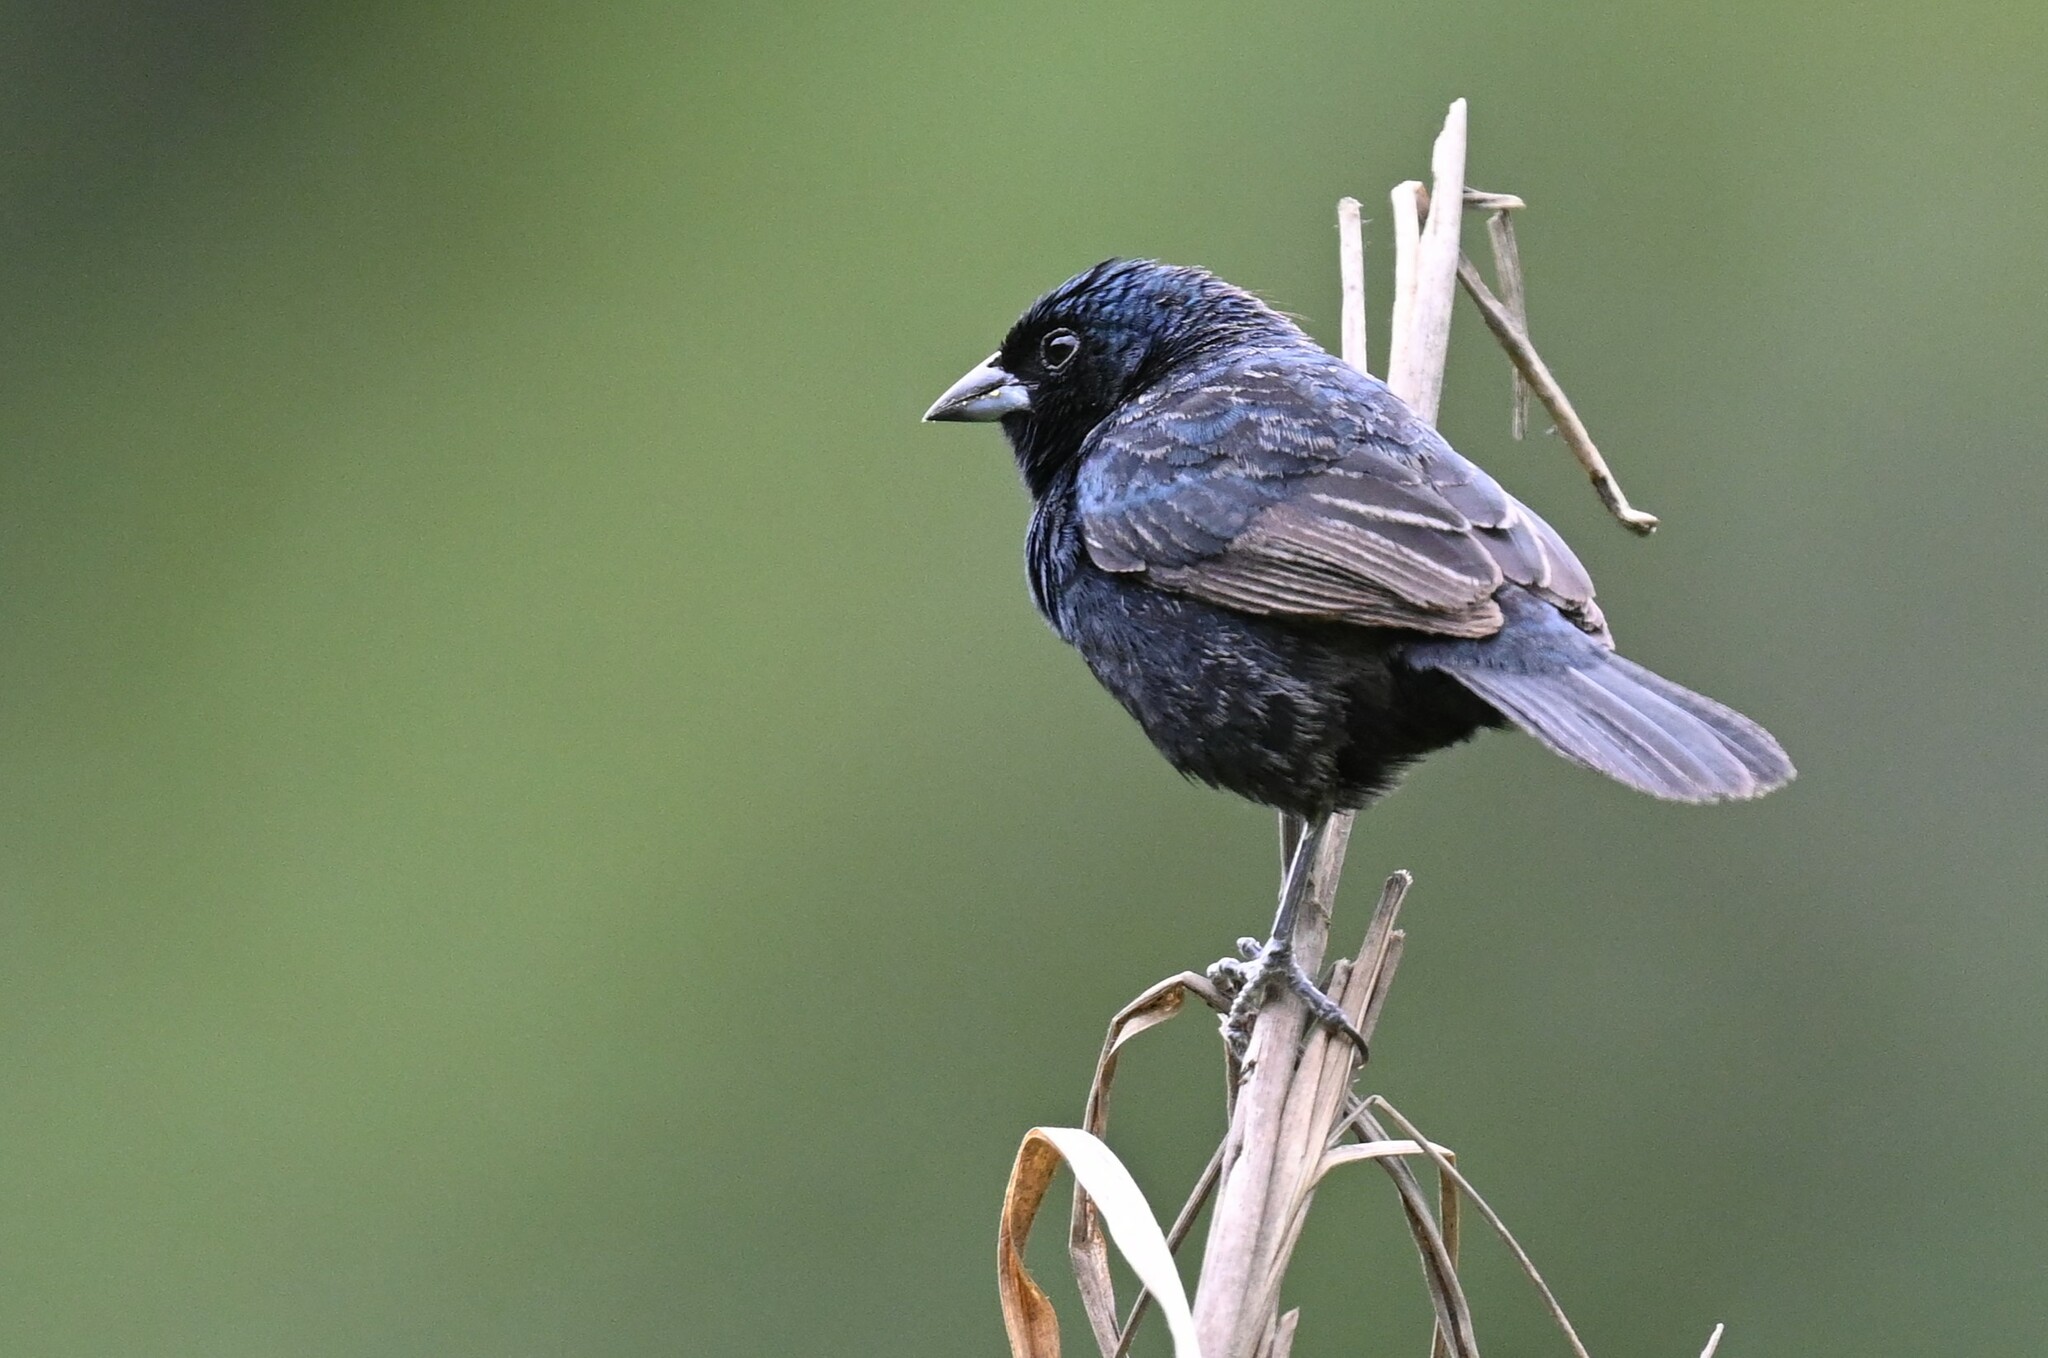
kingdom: Animalia
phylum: Chordata
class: Aves
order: Passeriformes
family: Thraupidae
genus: Volatinia
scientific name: Volatinia jacarina
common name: Blue-black grassquit
